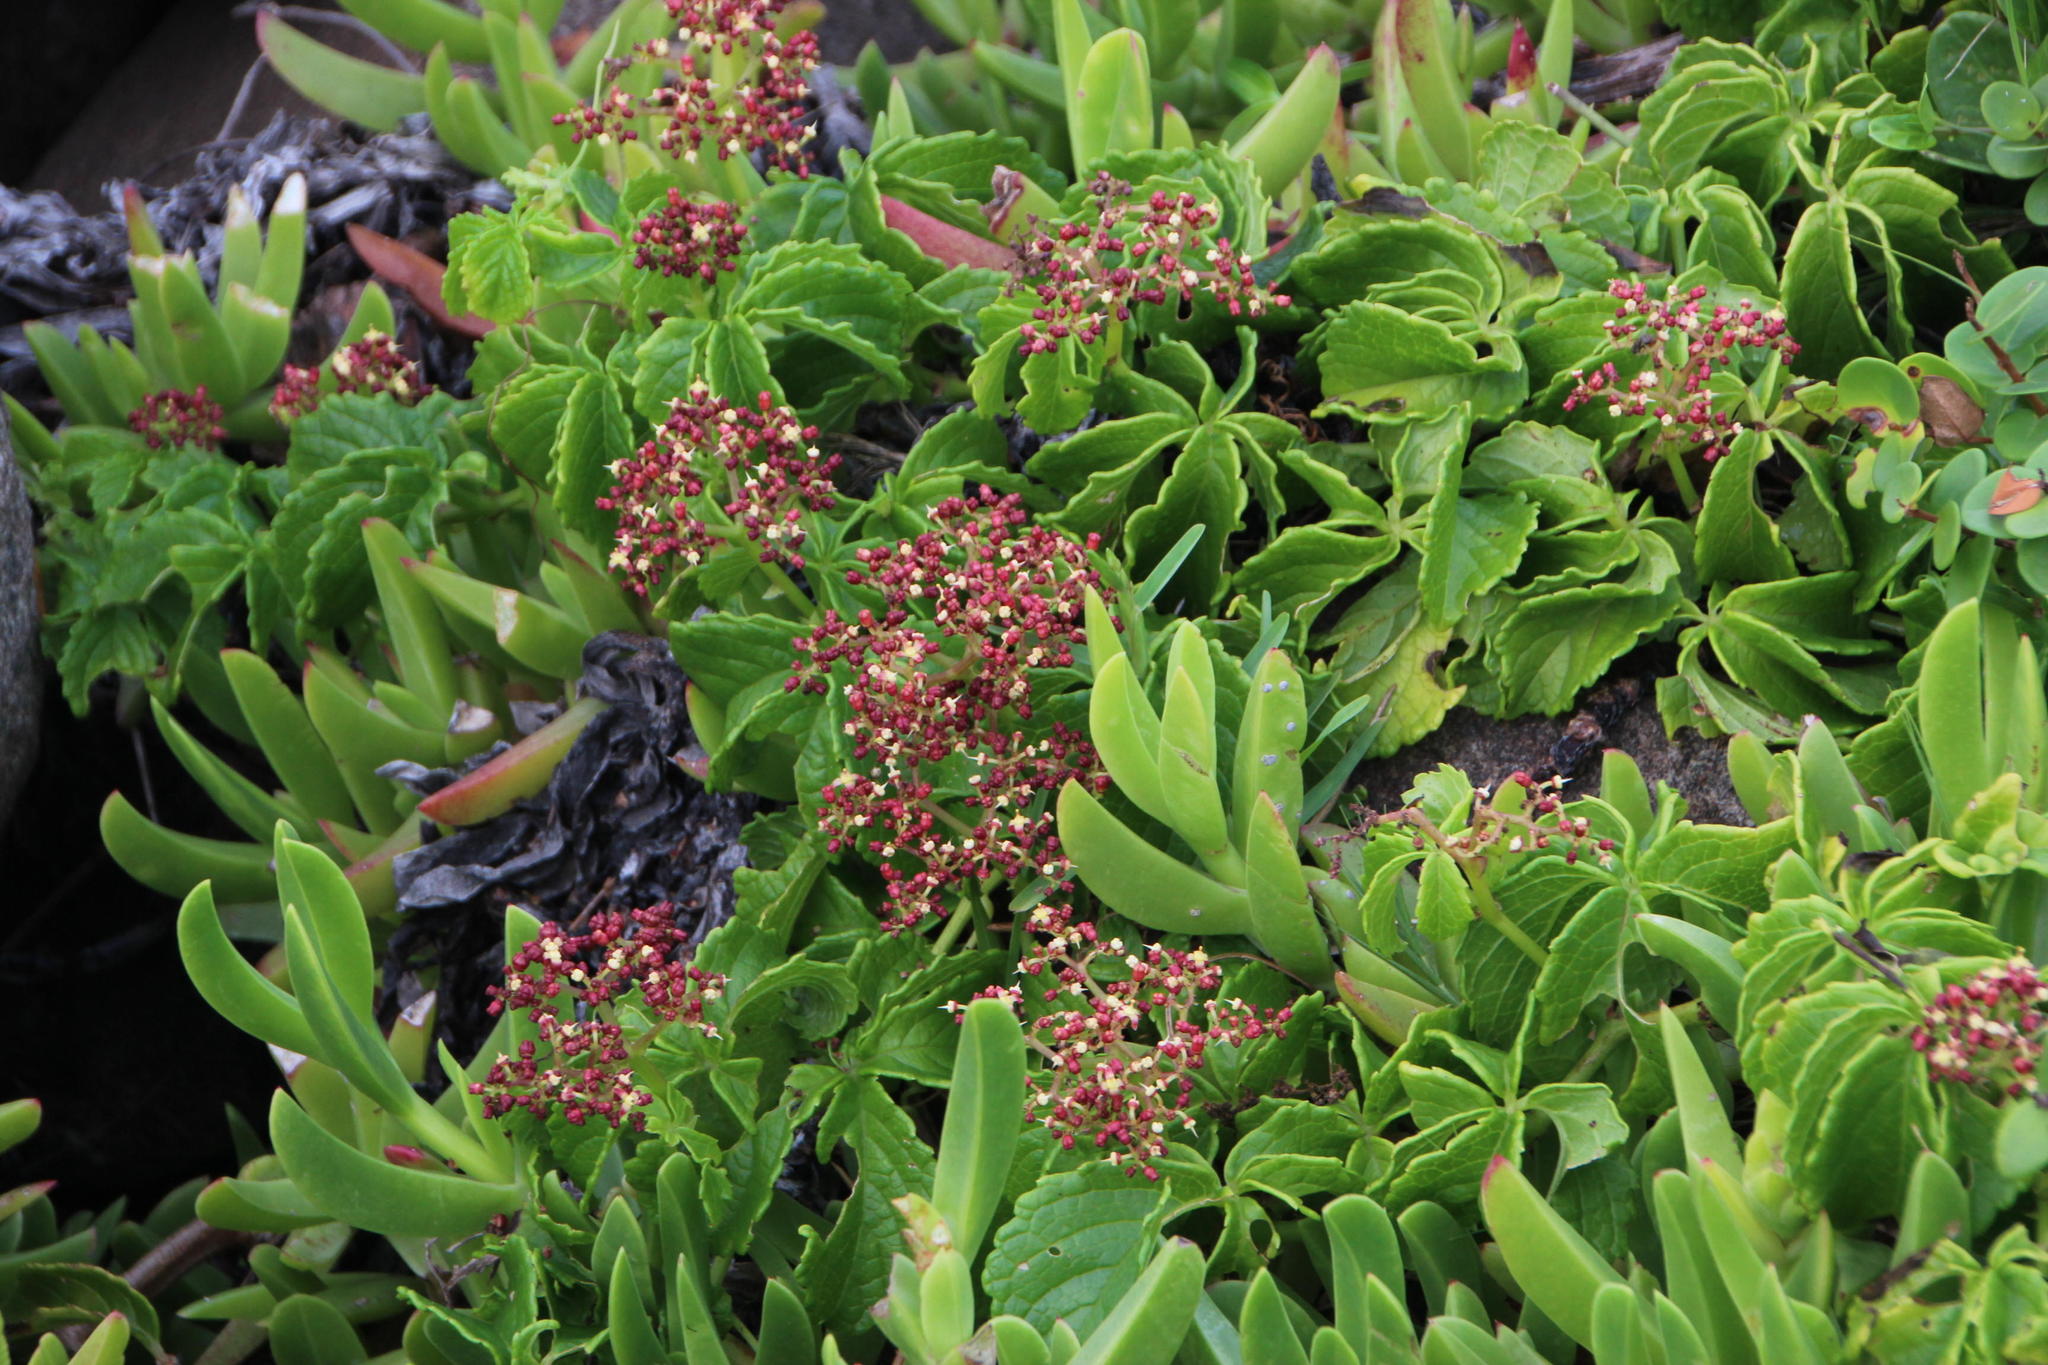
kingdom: Plantae
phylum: Tracheophyta
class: Magnoliopsida
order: Vitales
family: Vitaceae
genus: Cyphostemma
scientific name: Cyphostemma cirrhosum
